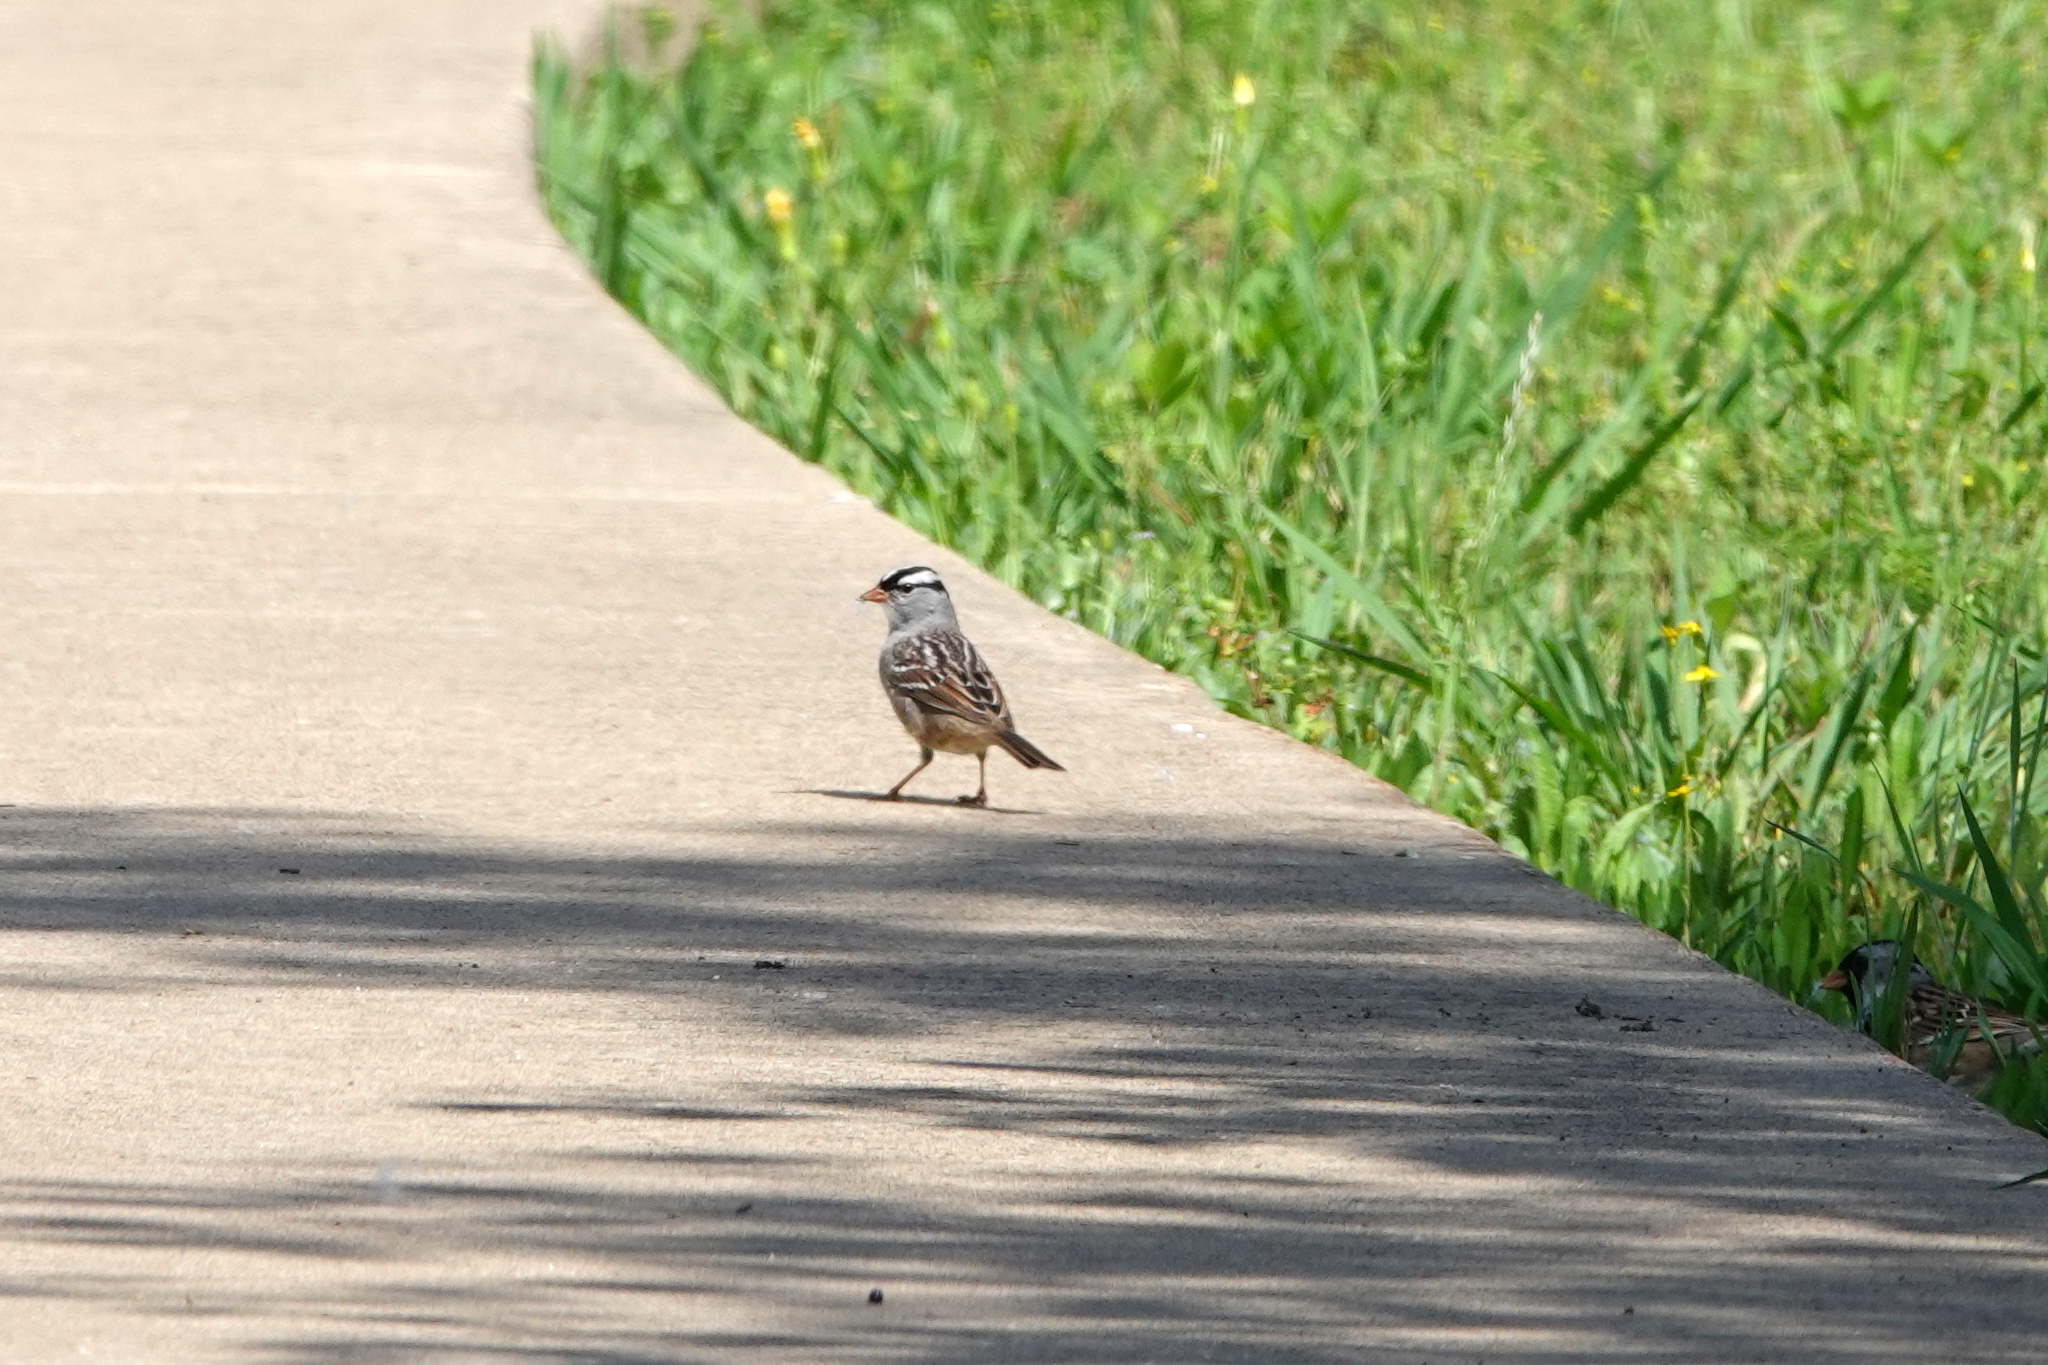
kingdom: Animalia
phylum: Chordata
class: Aves
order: Passeriformes
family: Passerellidae
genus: Zonotrichia
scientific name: Zonotrichia leucophrys
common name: White-crowned sparrow
